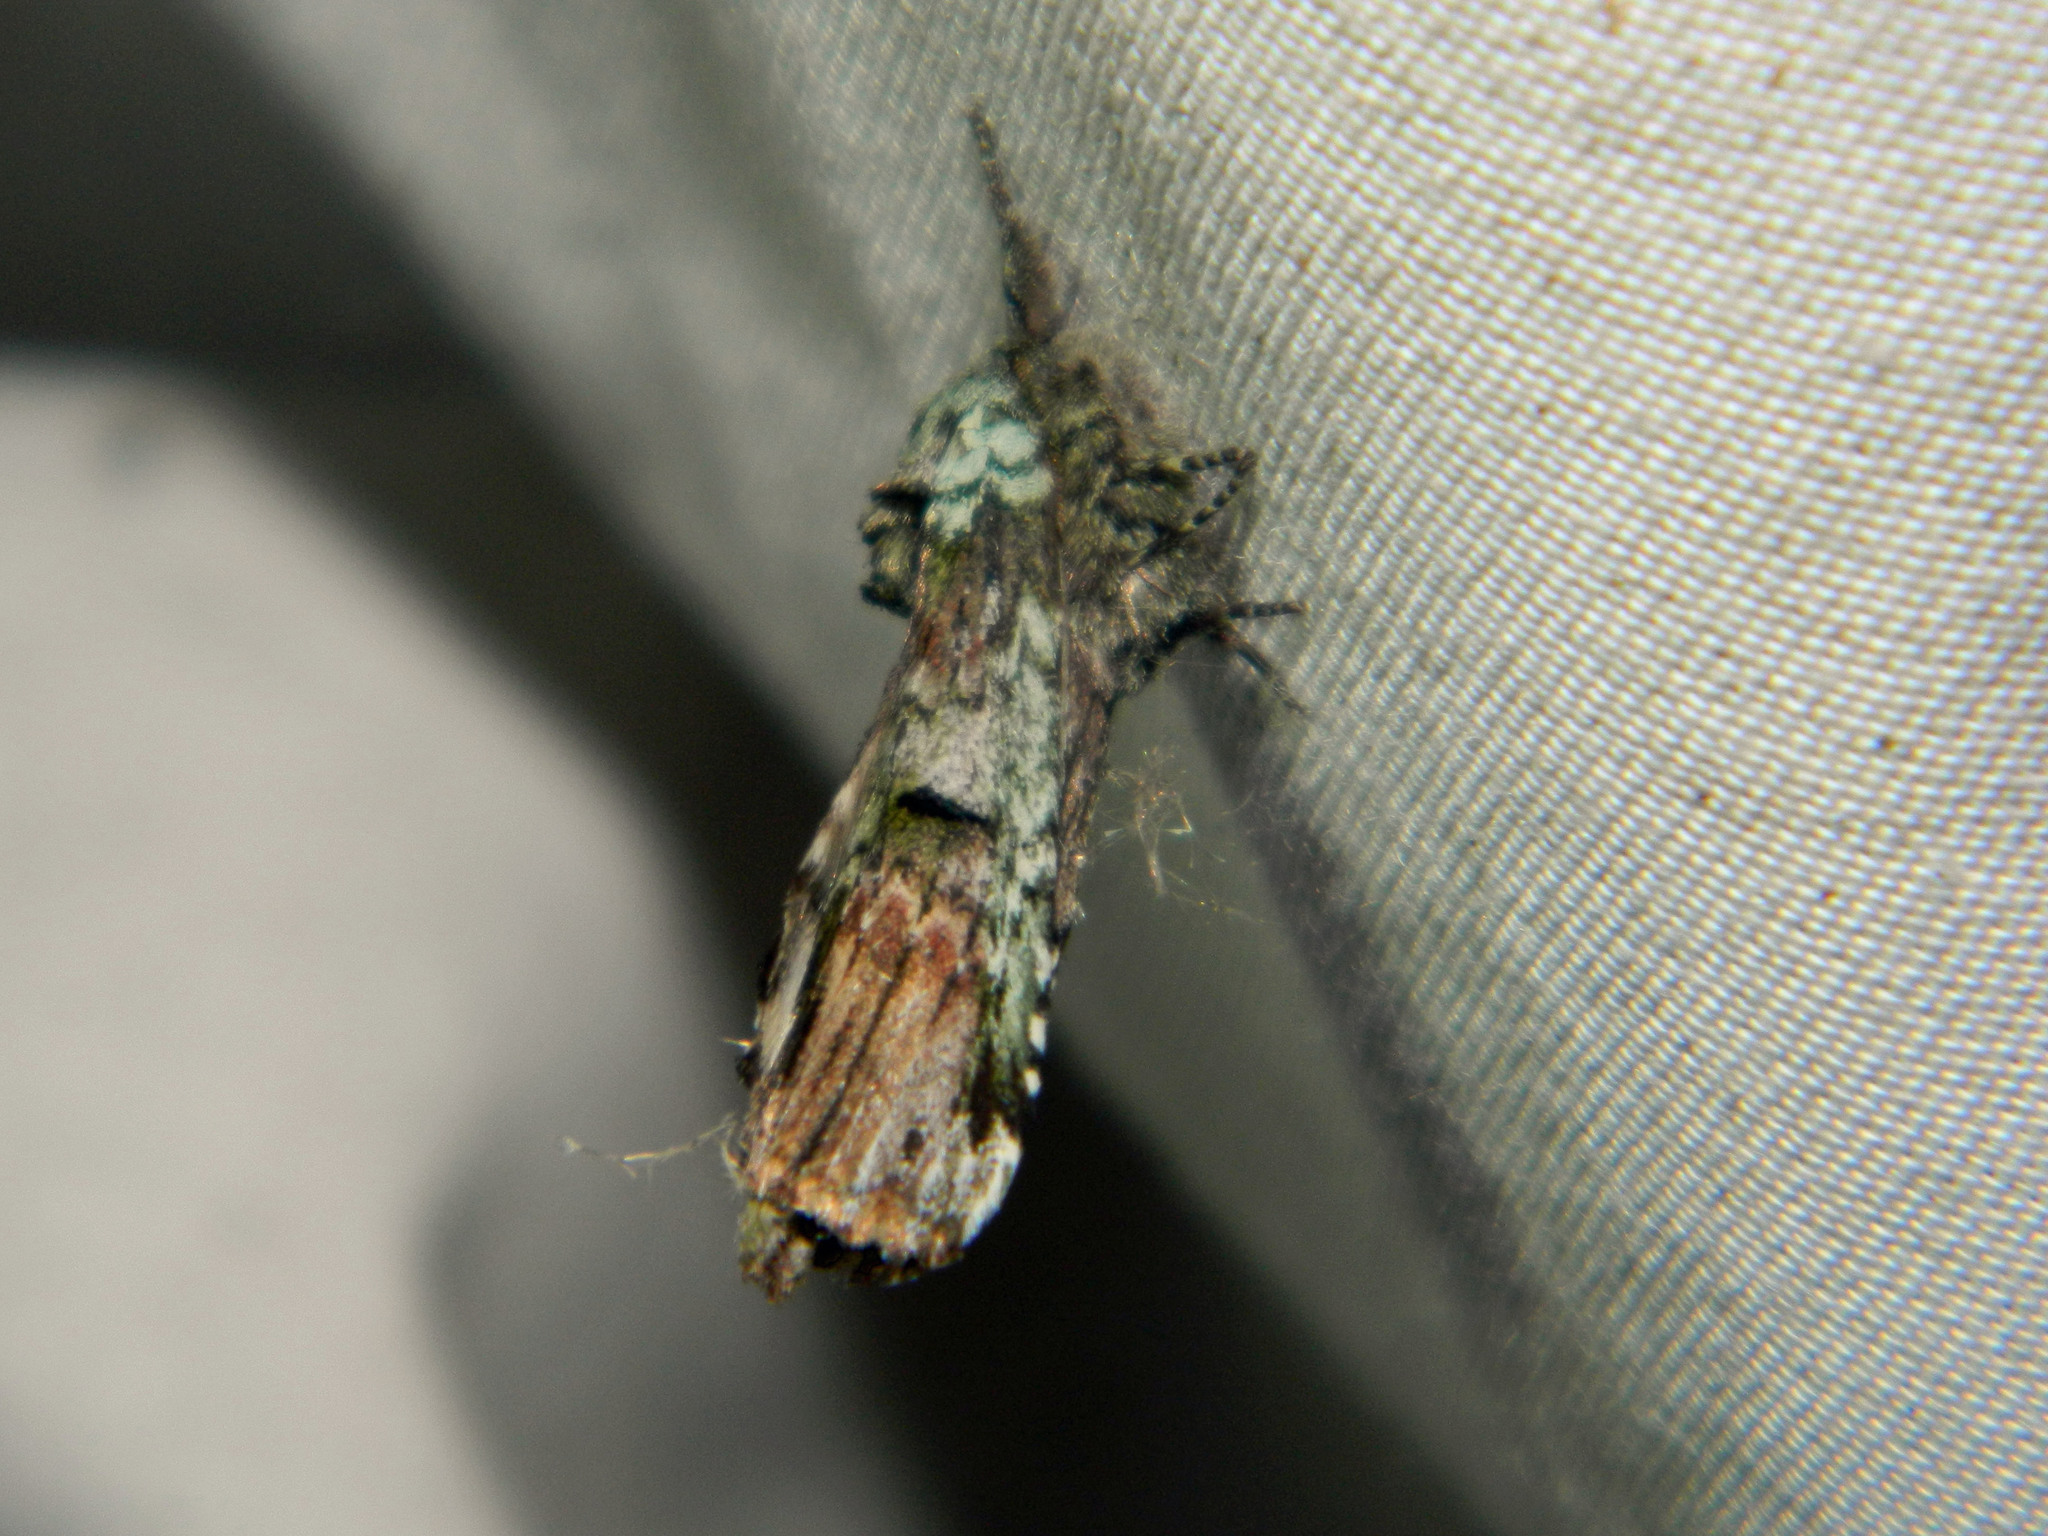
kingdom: Animalia
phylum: Arthropoda
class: Insecta
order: Lepidoptera
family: Notodontidae
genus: Schizura
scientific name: Schizura
